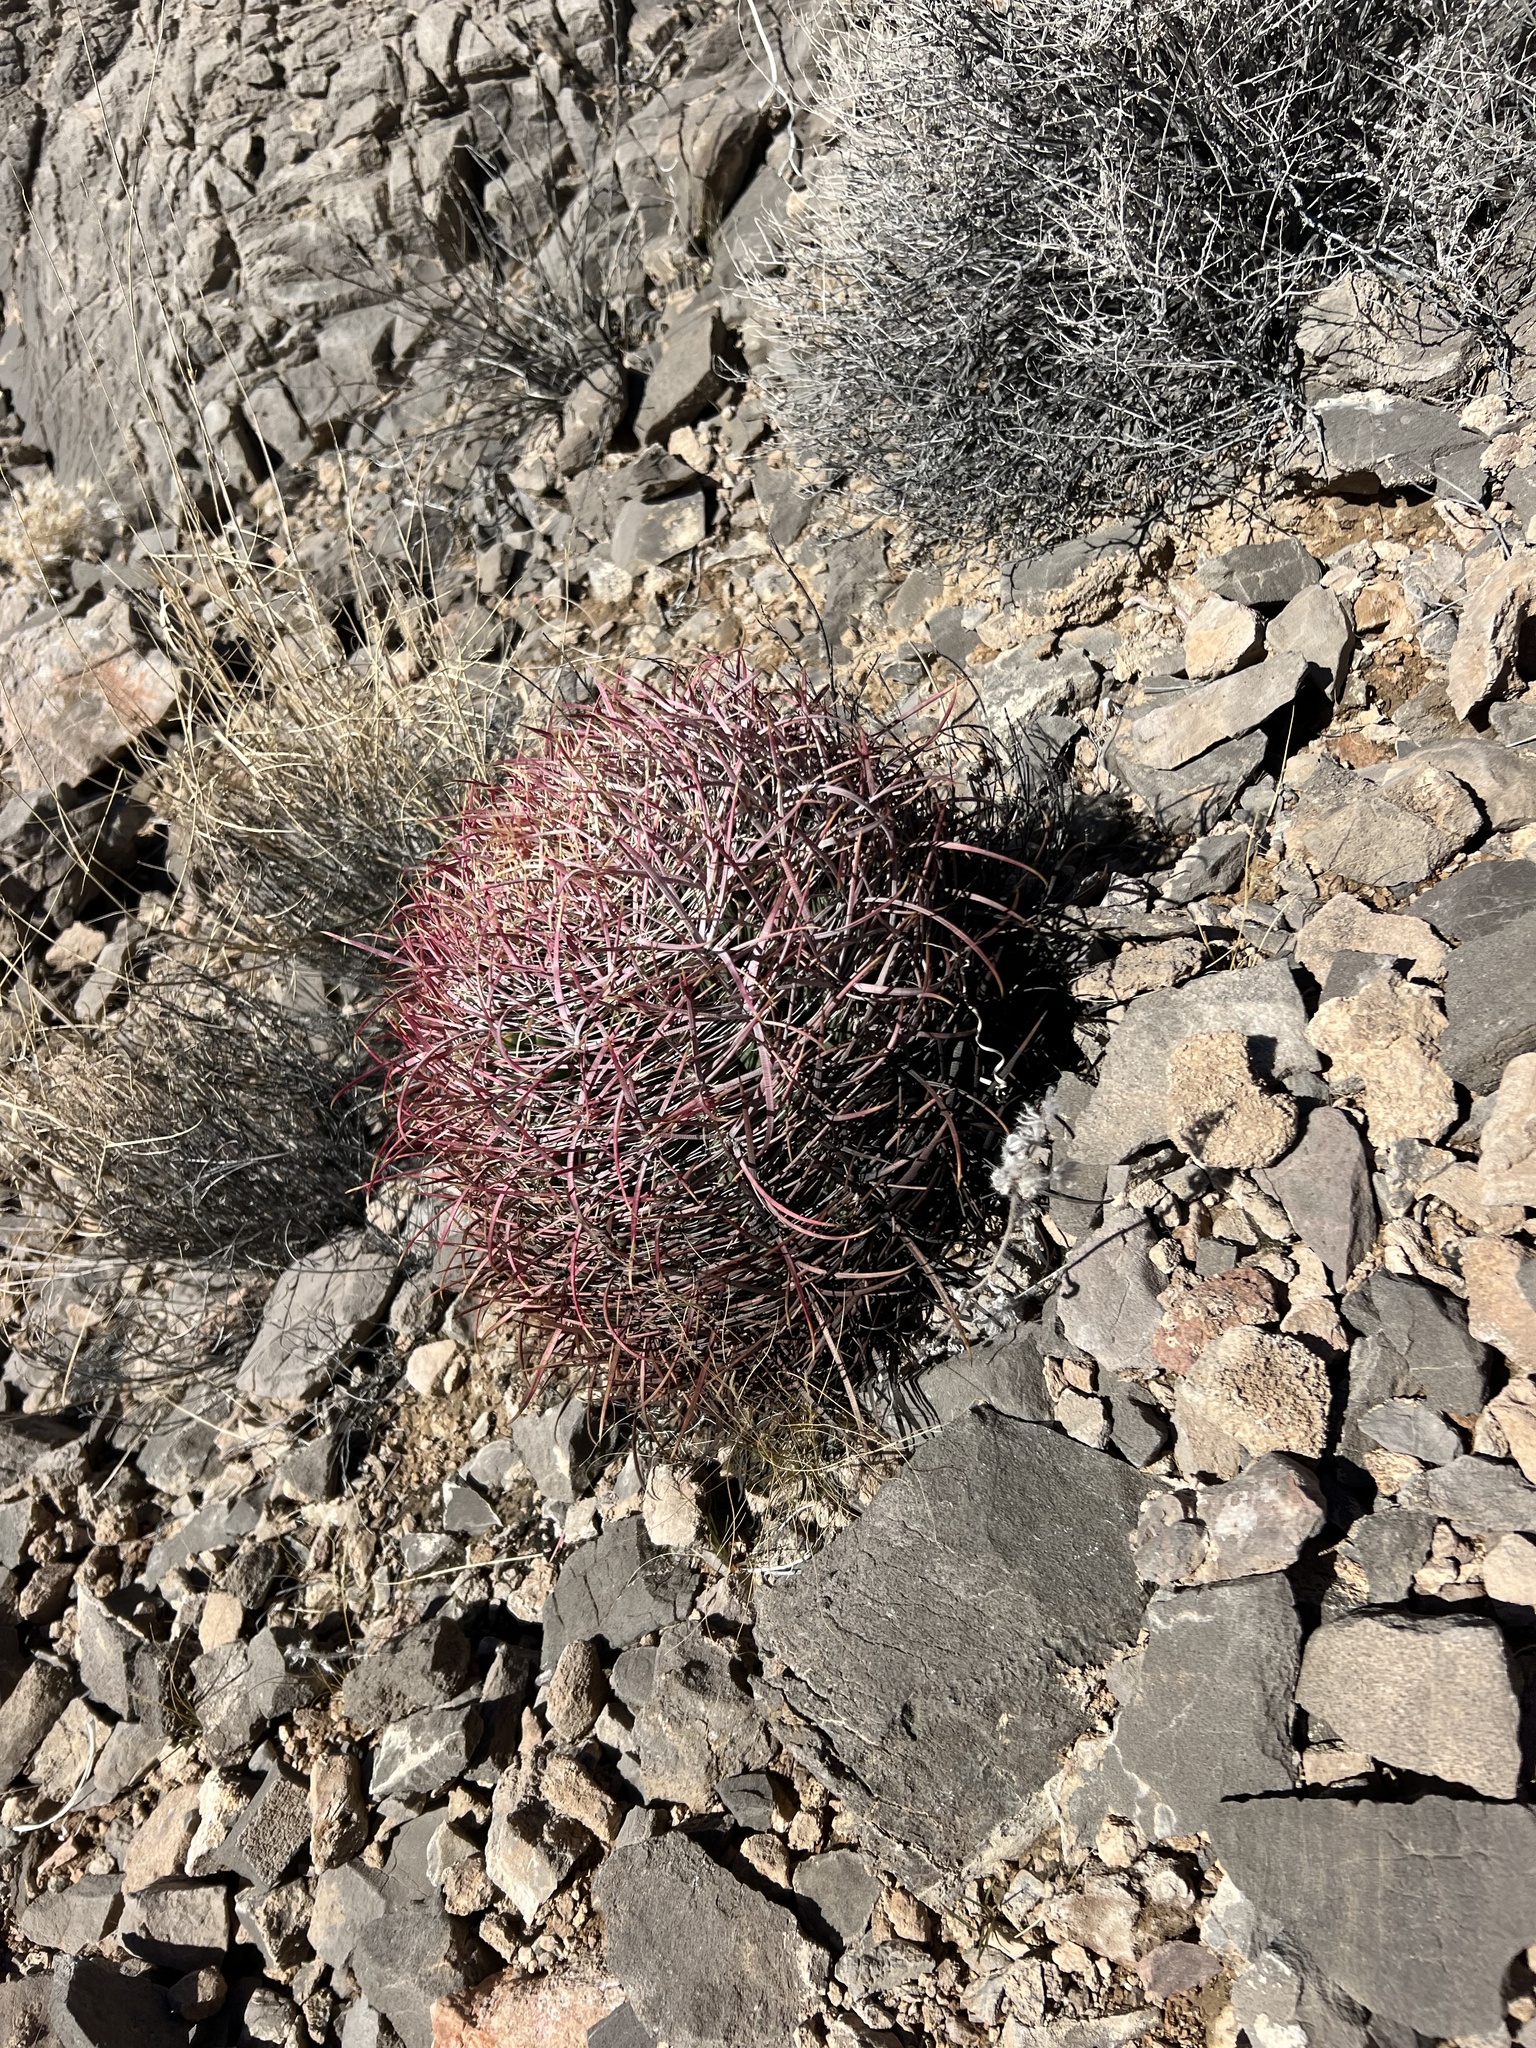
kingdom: Plantae
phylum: Tracheophyta
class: Magnoliopsida
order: Caryophyllales
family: Cactaceae
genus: Ferocactus
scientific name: Ferocactus cylindraceus
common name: California barrel cactus
